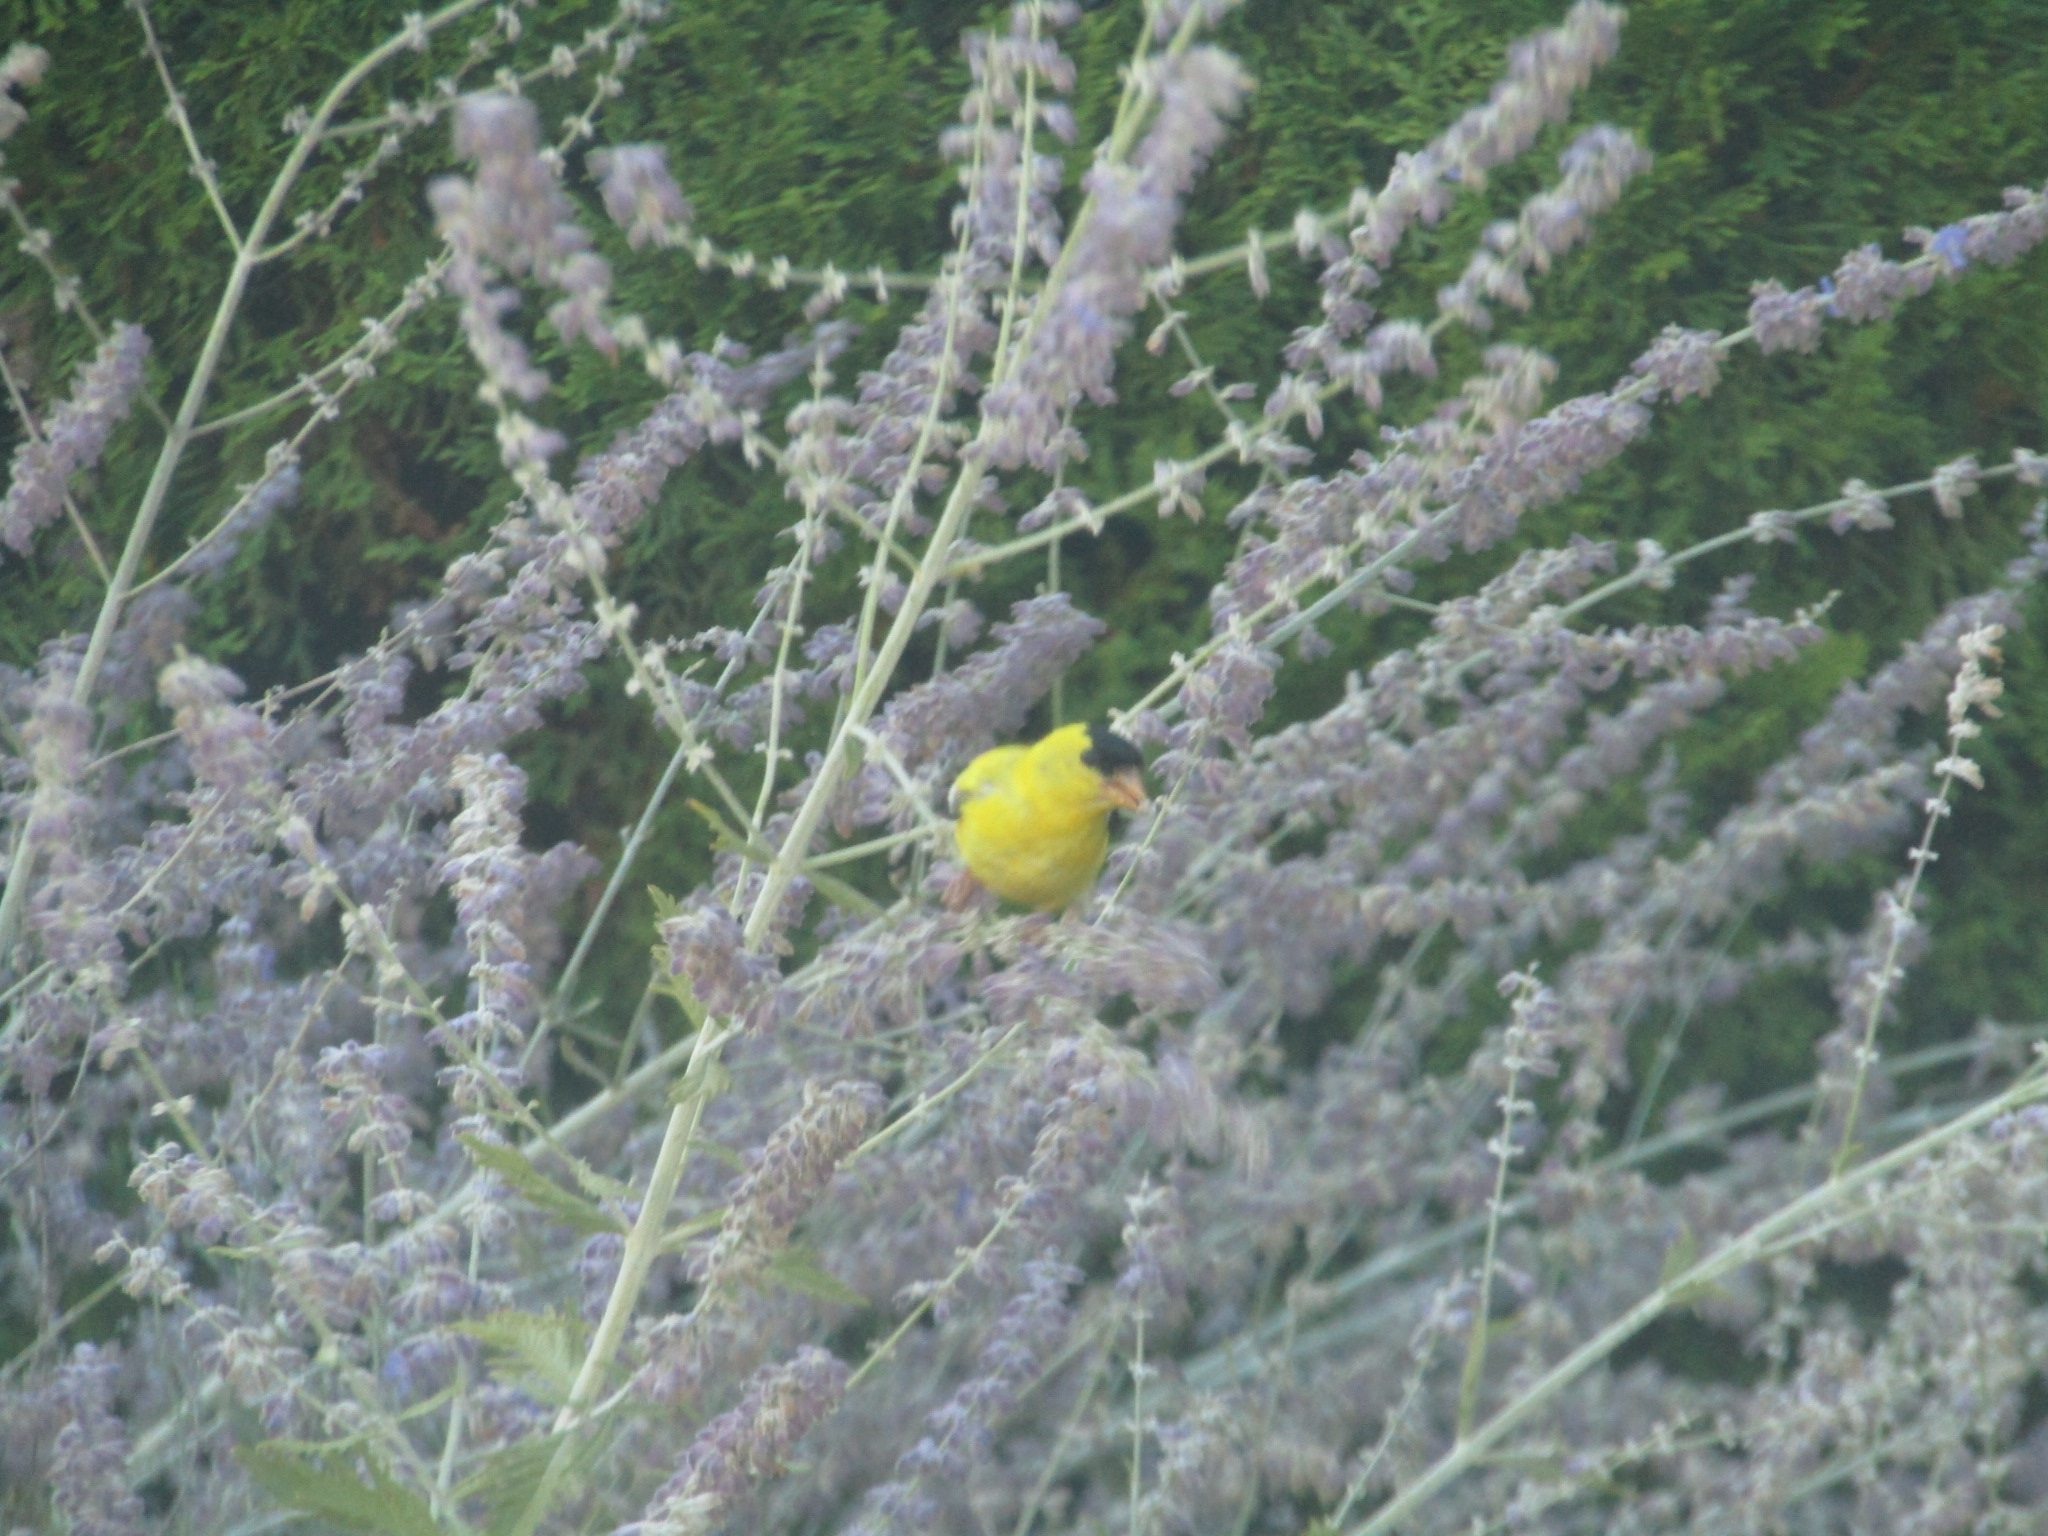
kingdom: Animalia
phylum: Chordata
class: Aves
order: Passeriformes
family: Fringillidae
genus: Spinus
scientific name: Spinus tristis
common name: American goldfinch
